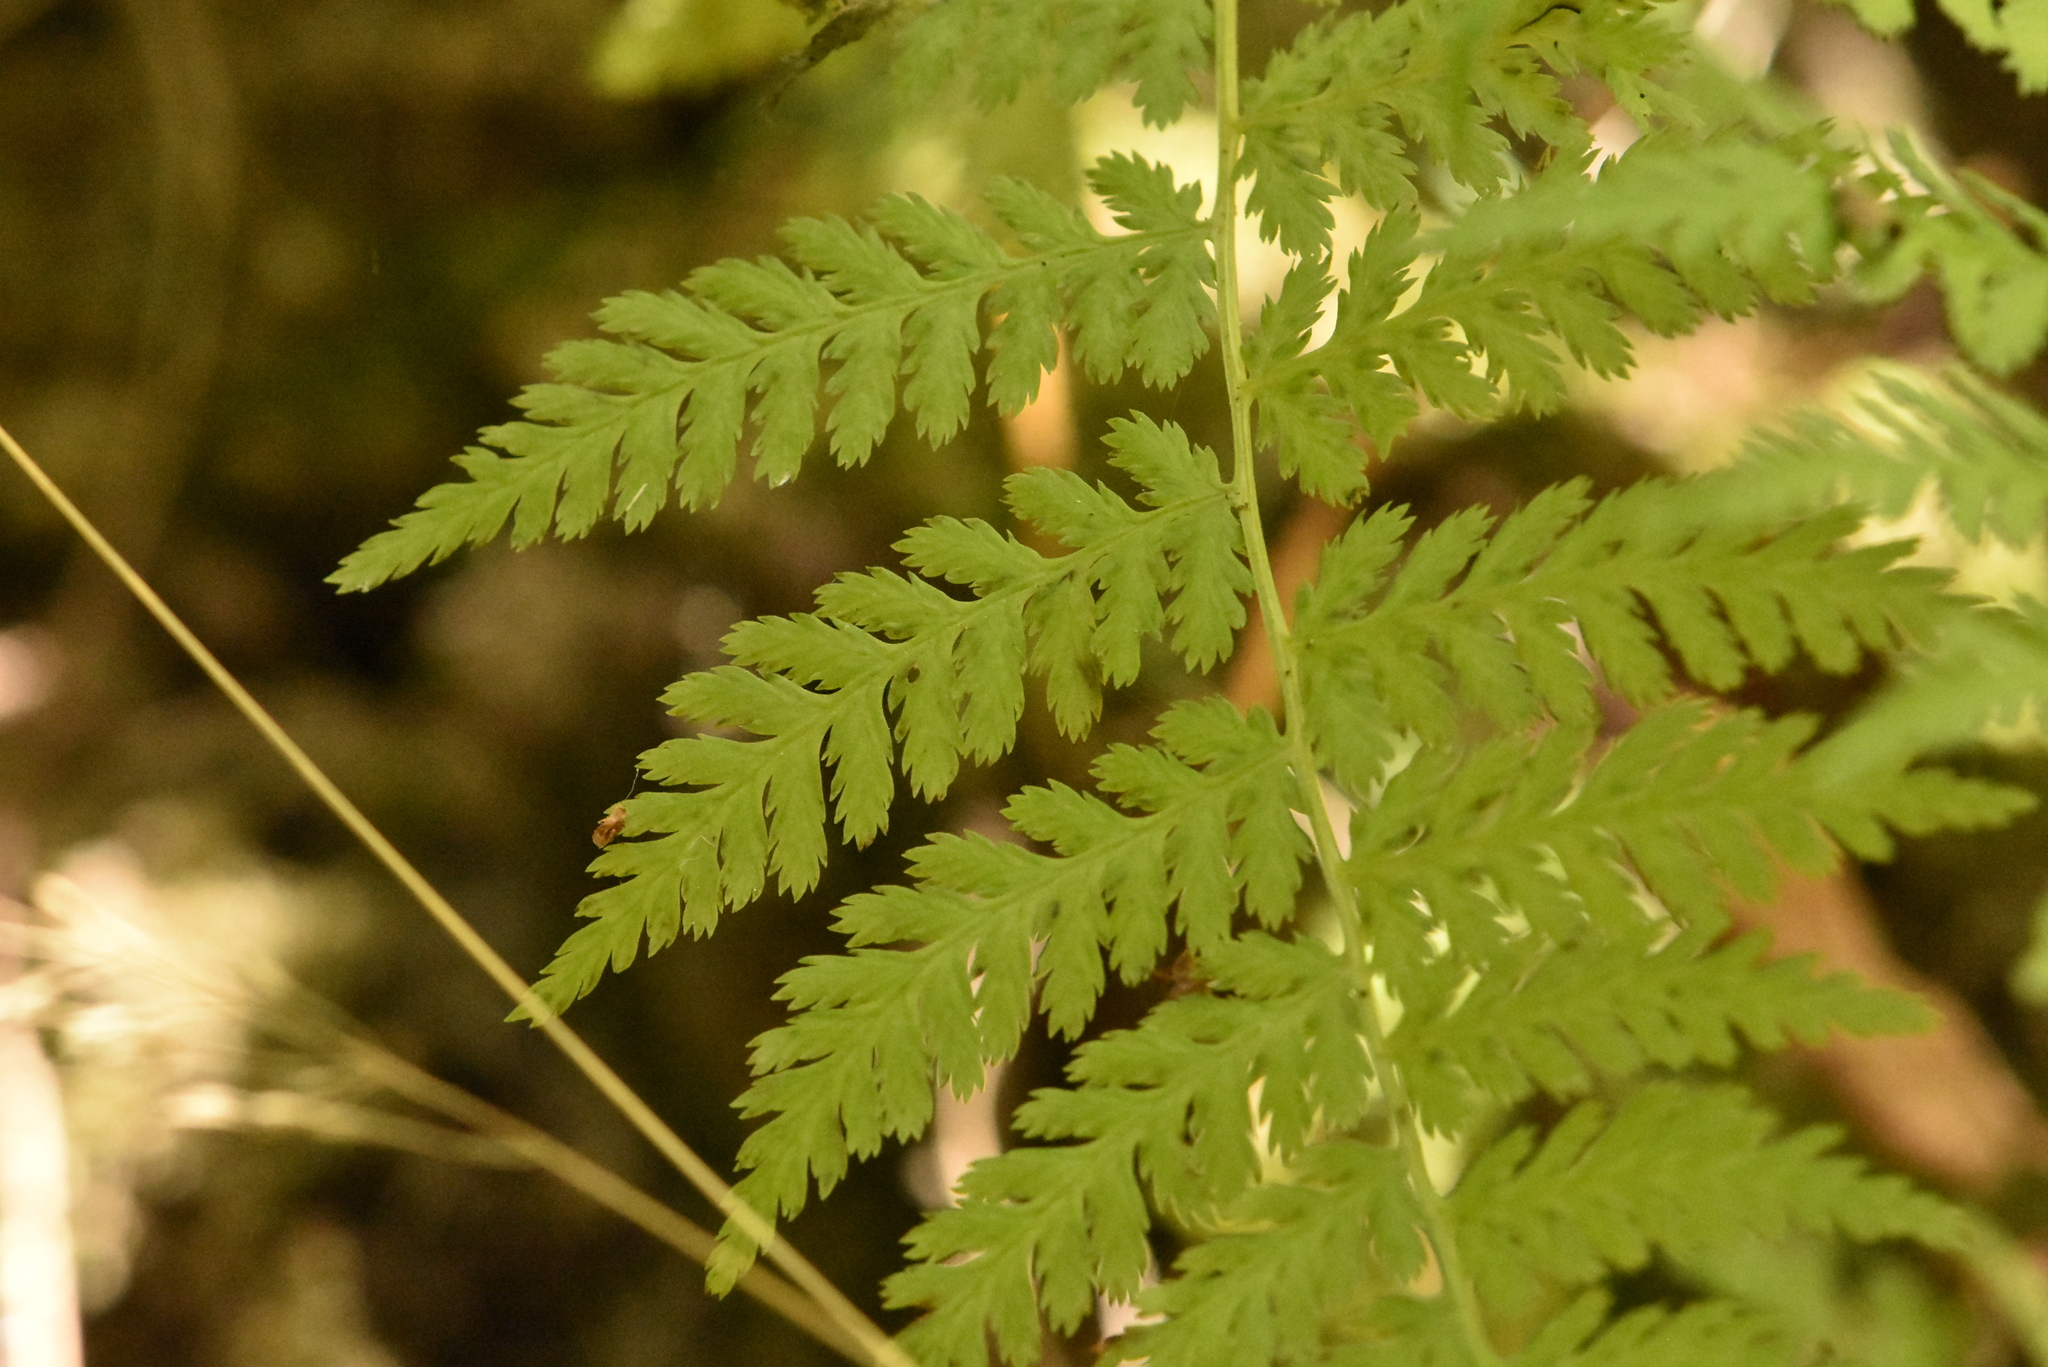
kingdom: Plantae
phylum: Tracheophyta
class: Polypodiopsida
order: Polypodiales
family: Athyriaceae
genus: Athyrium
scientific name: Athyrium filix-femina
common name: Lady fern
